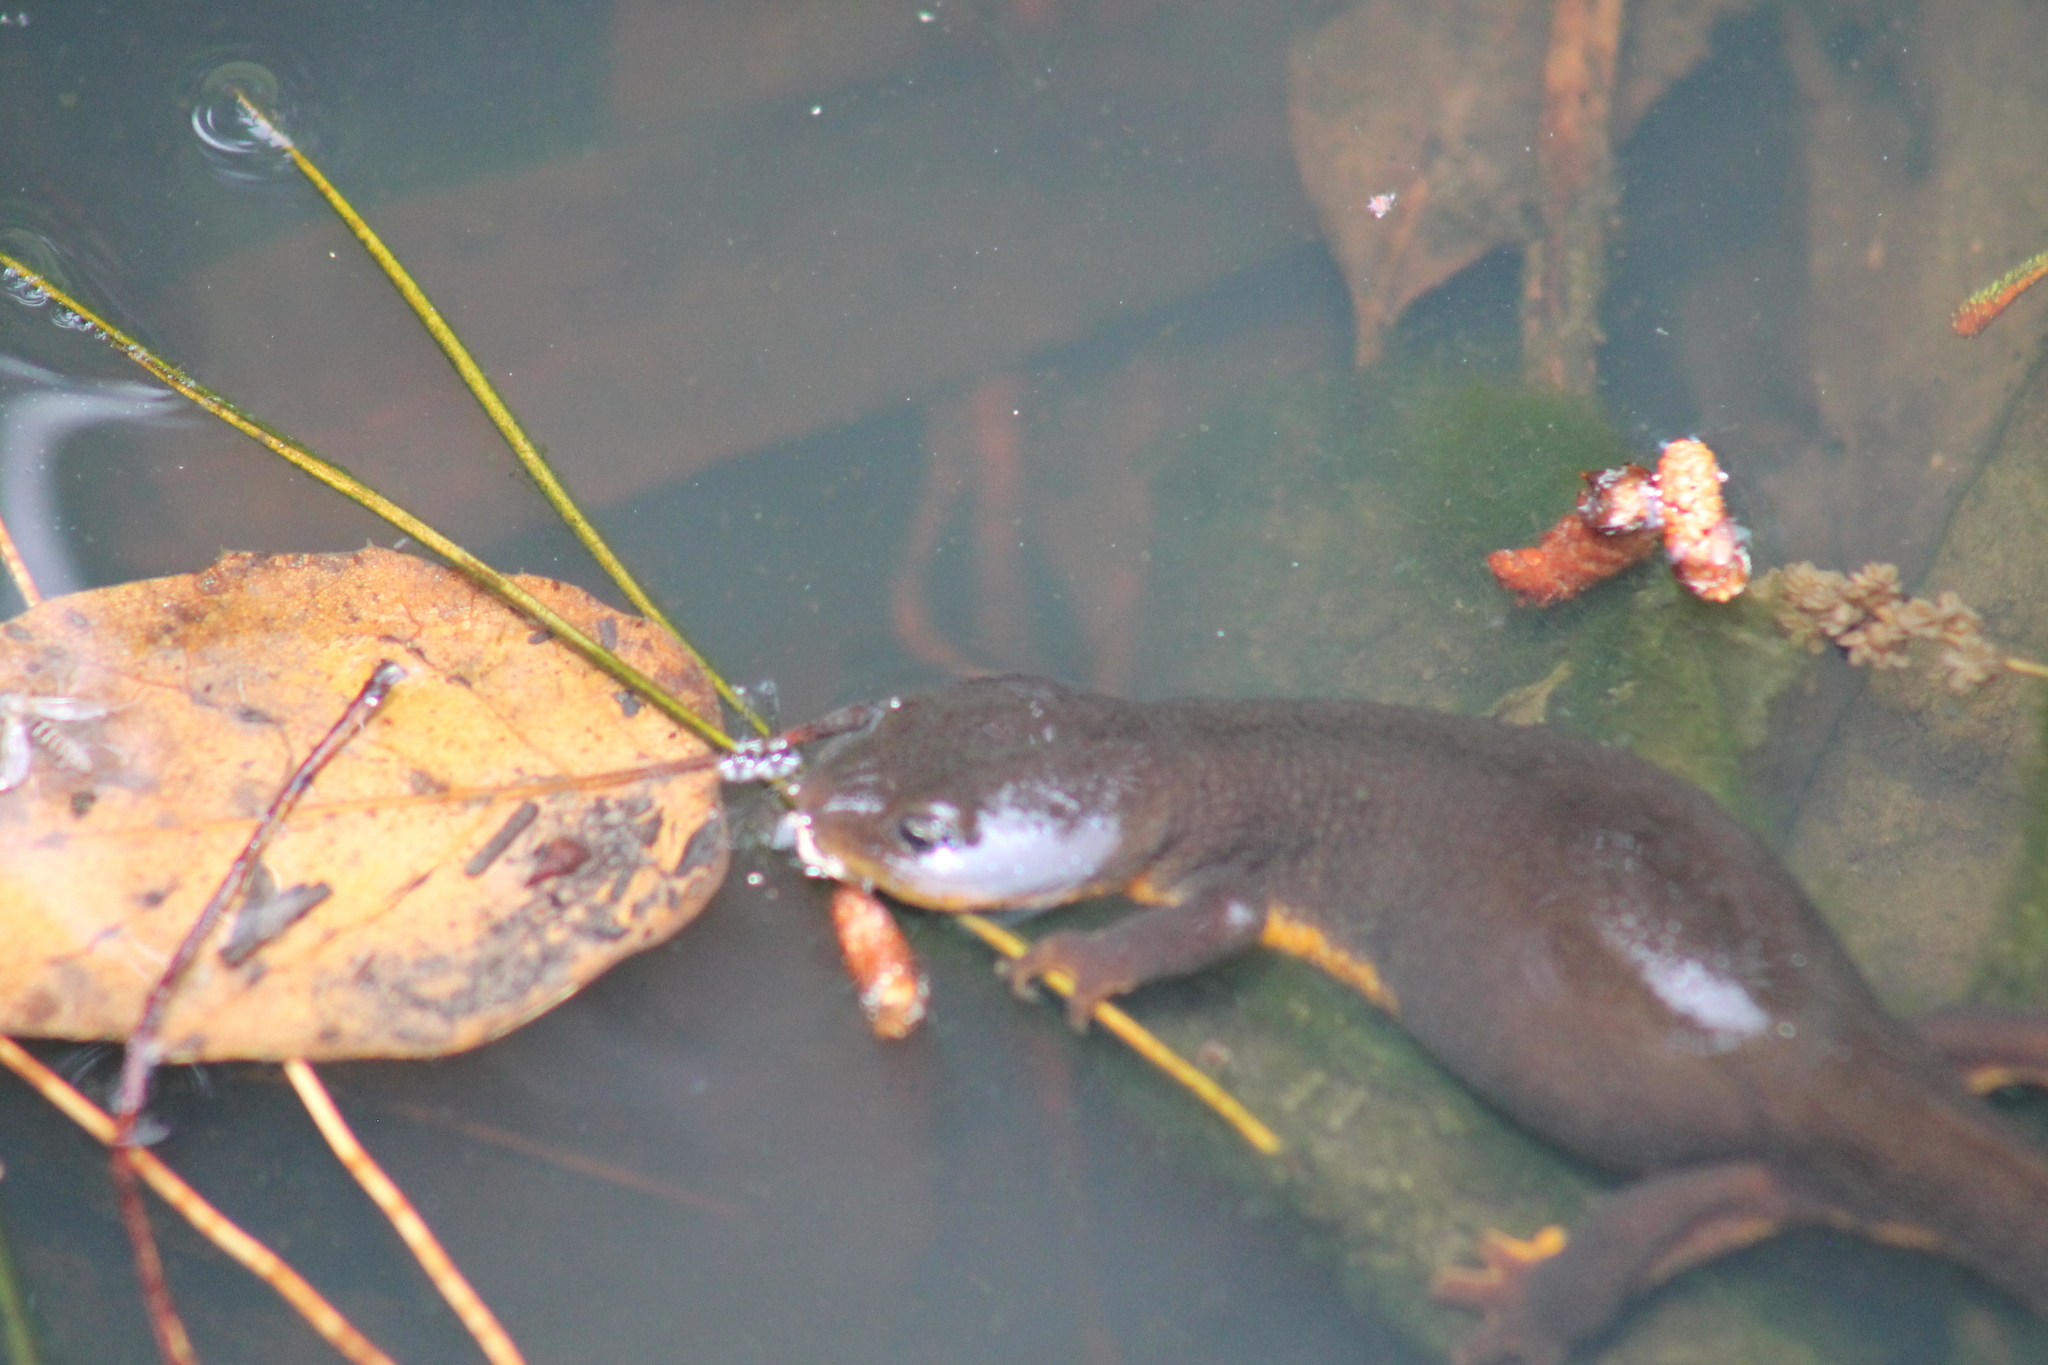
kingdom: Animalia
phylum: Chordata
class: Amphibia
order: Caudata
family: Salamandridae
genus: Taricha
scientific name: Taricha granulosa
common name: Roughskin newt
